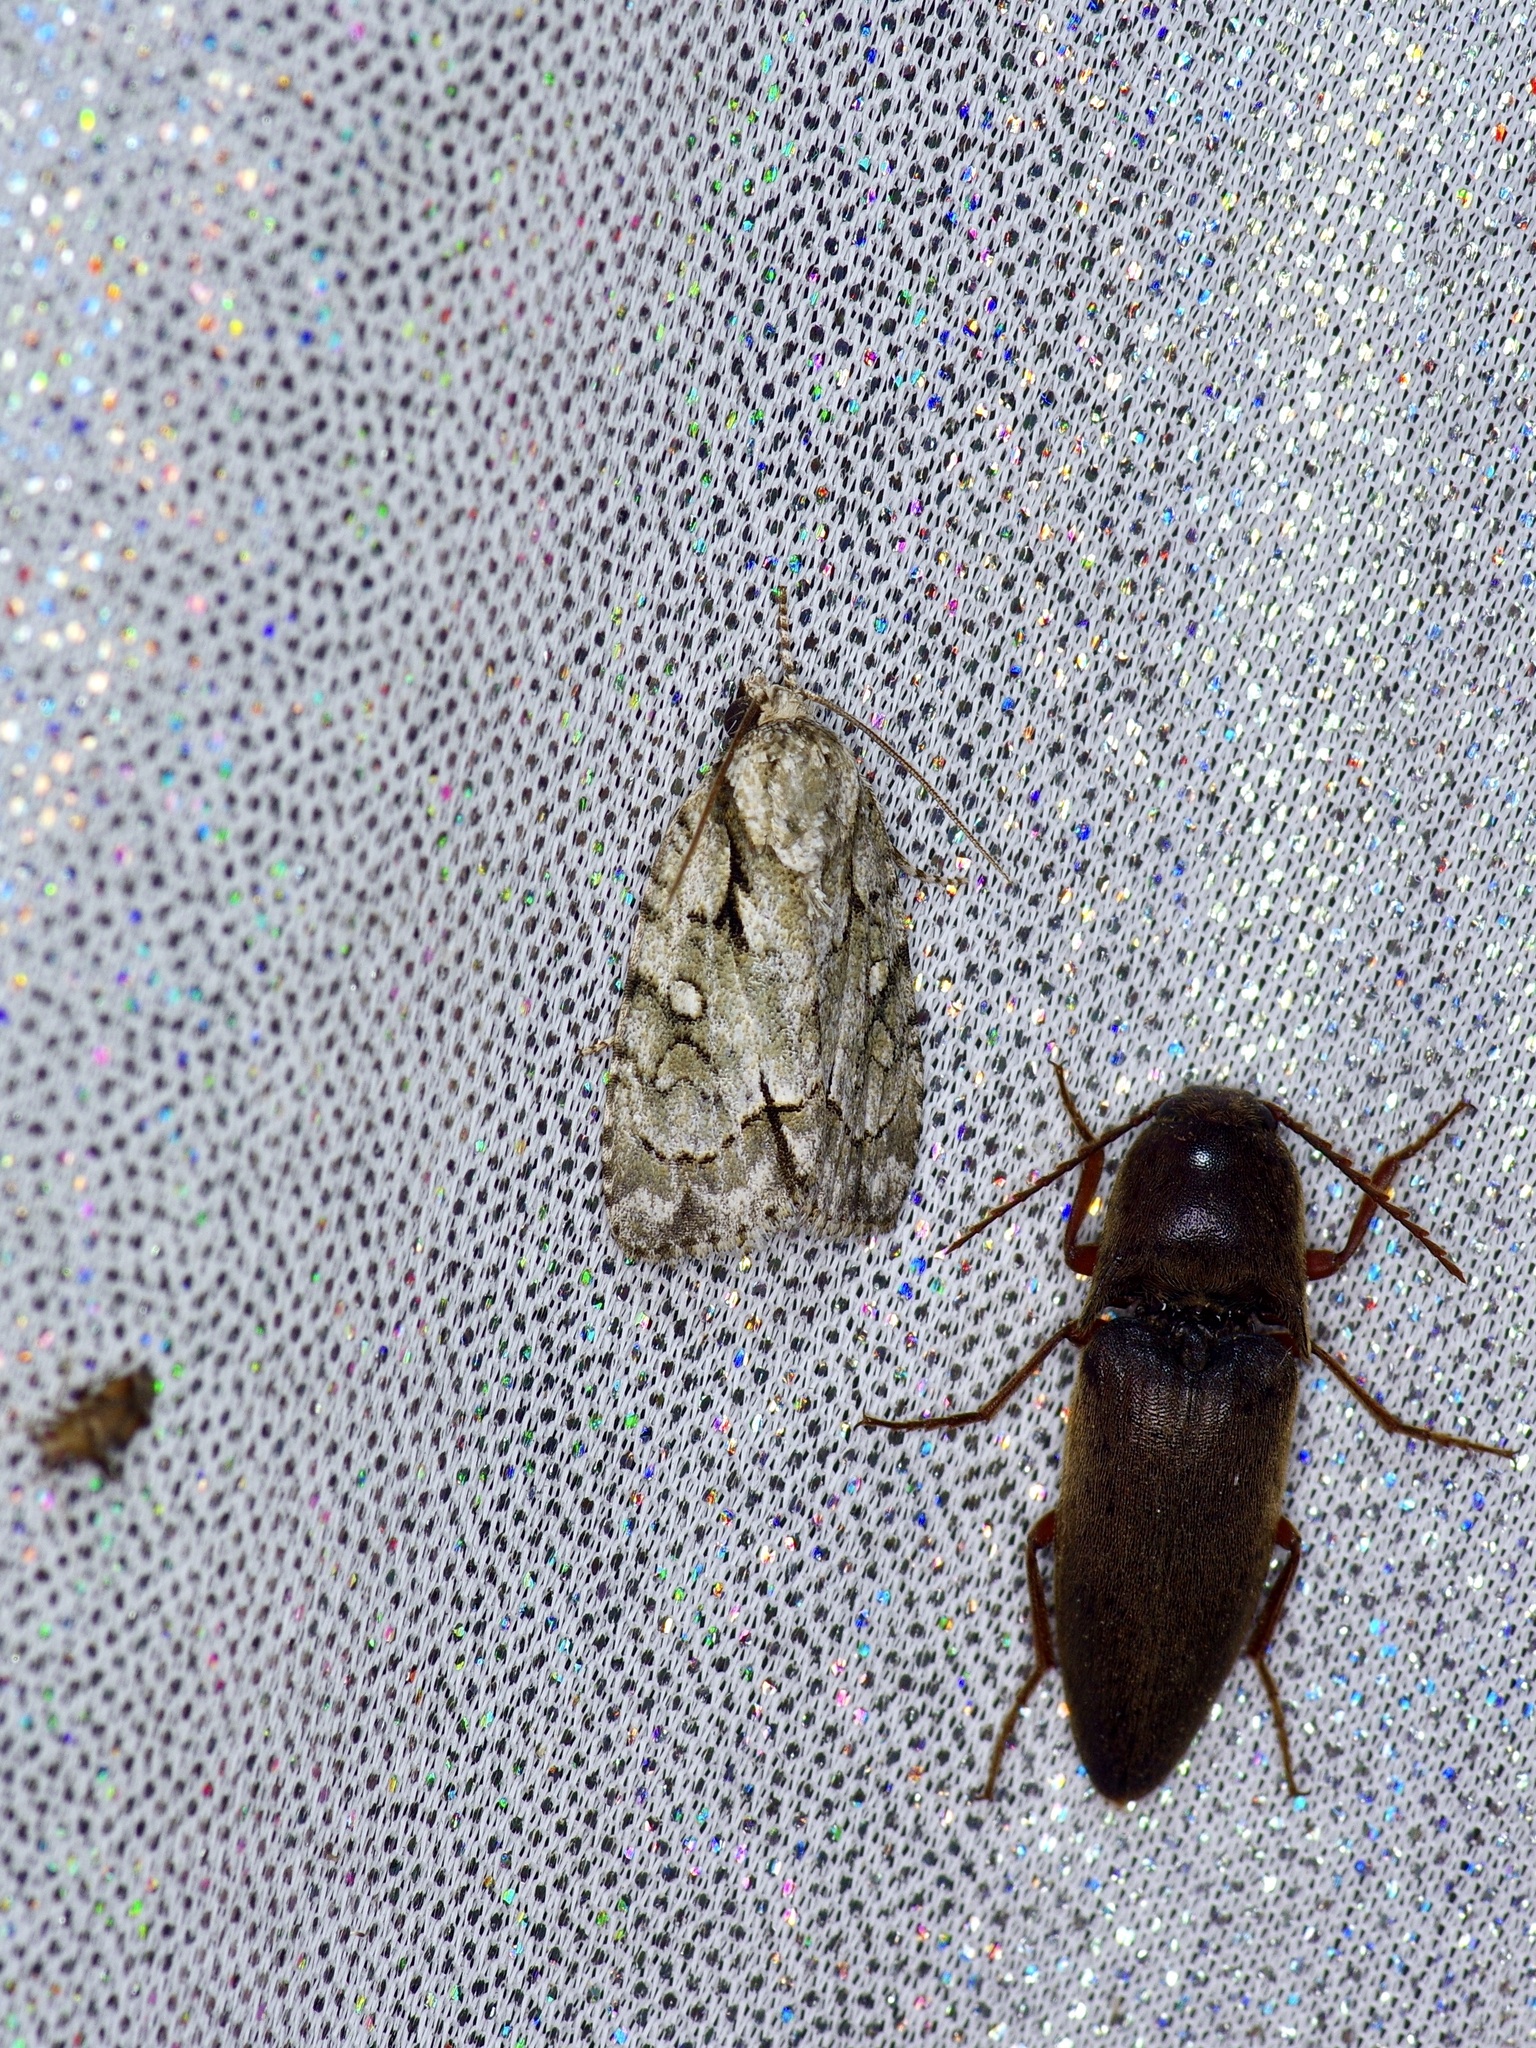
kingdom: Animalia
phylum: Arthropoda
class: Insecta
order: Lepidoptera
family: Noctuidae
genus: Acronicta
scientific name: Acronicta vinnula
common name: Delightful dagger
